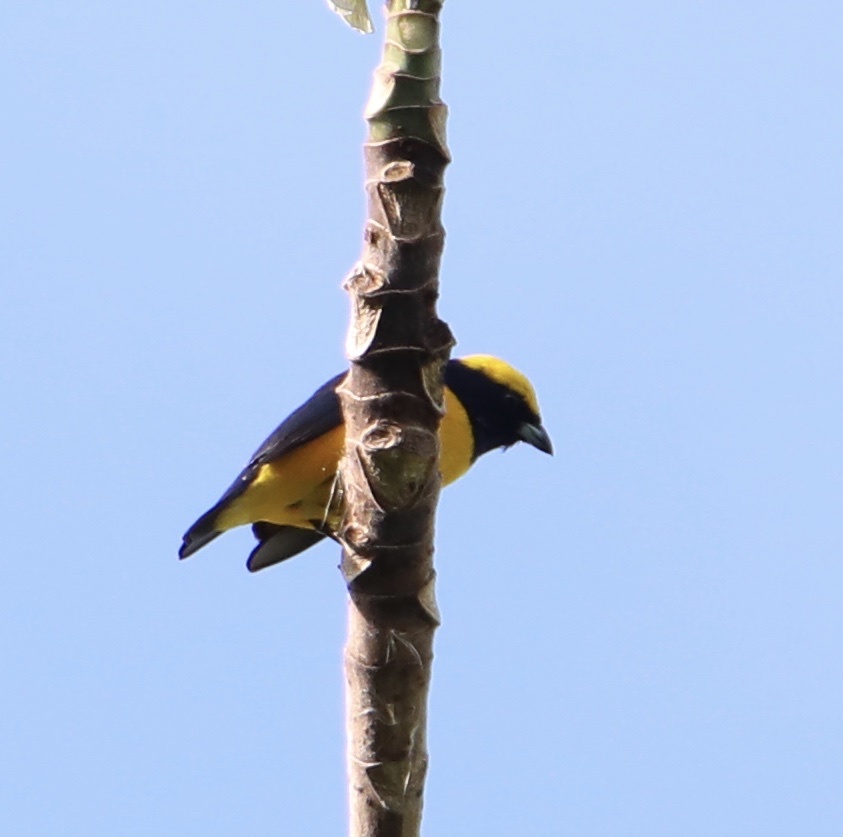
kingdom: Animalia
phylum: Chordata
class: Aves
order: Passeriformes
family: Fringillidae
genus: Euphonia
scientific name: Euphonia luteicapilla
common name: Yellow-crowned euphonia
